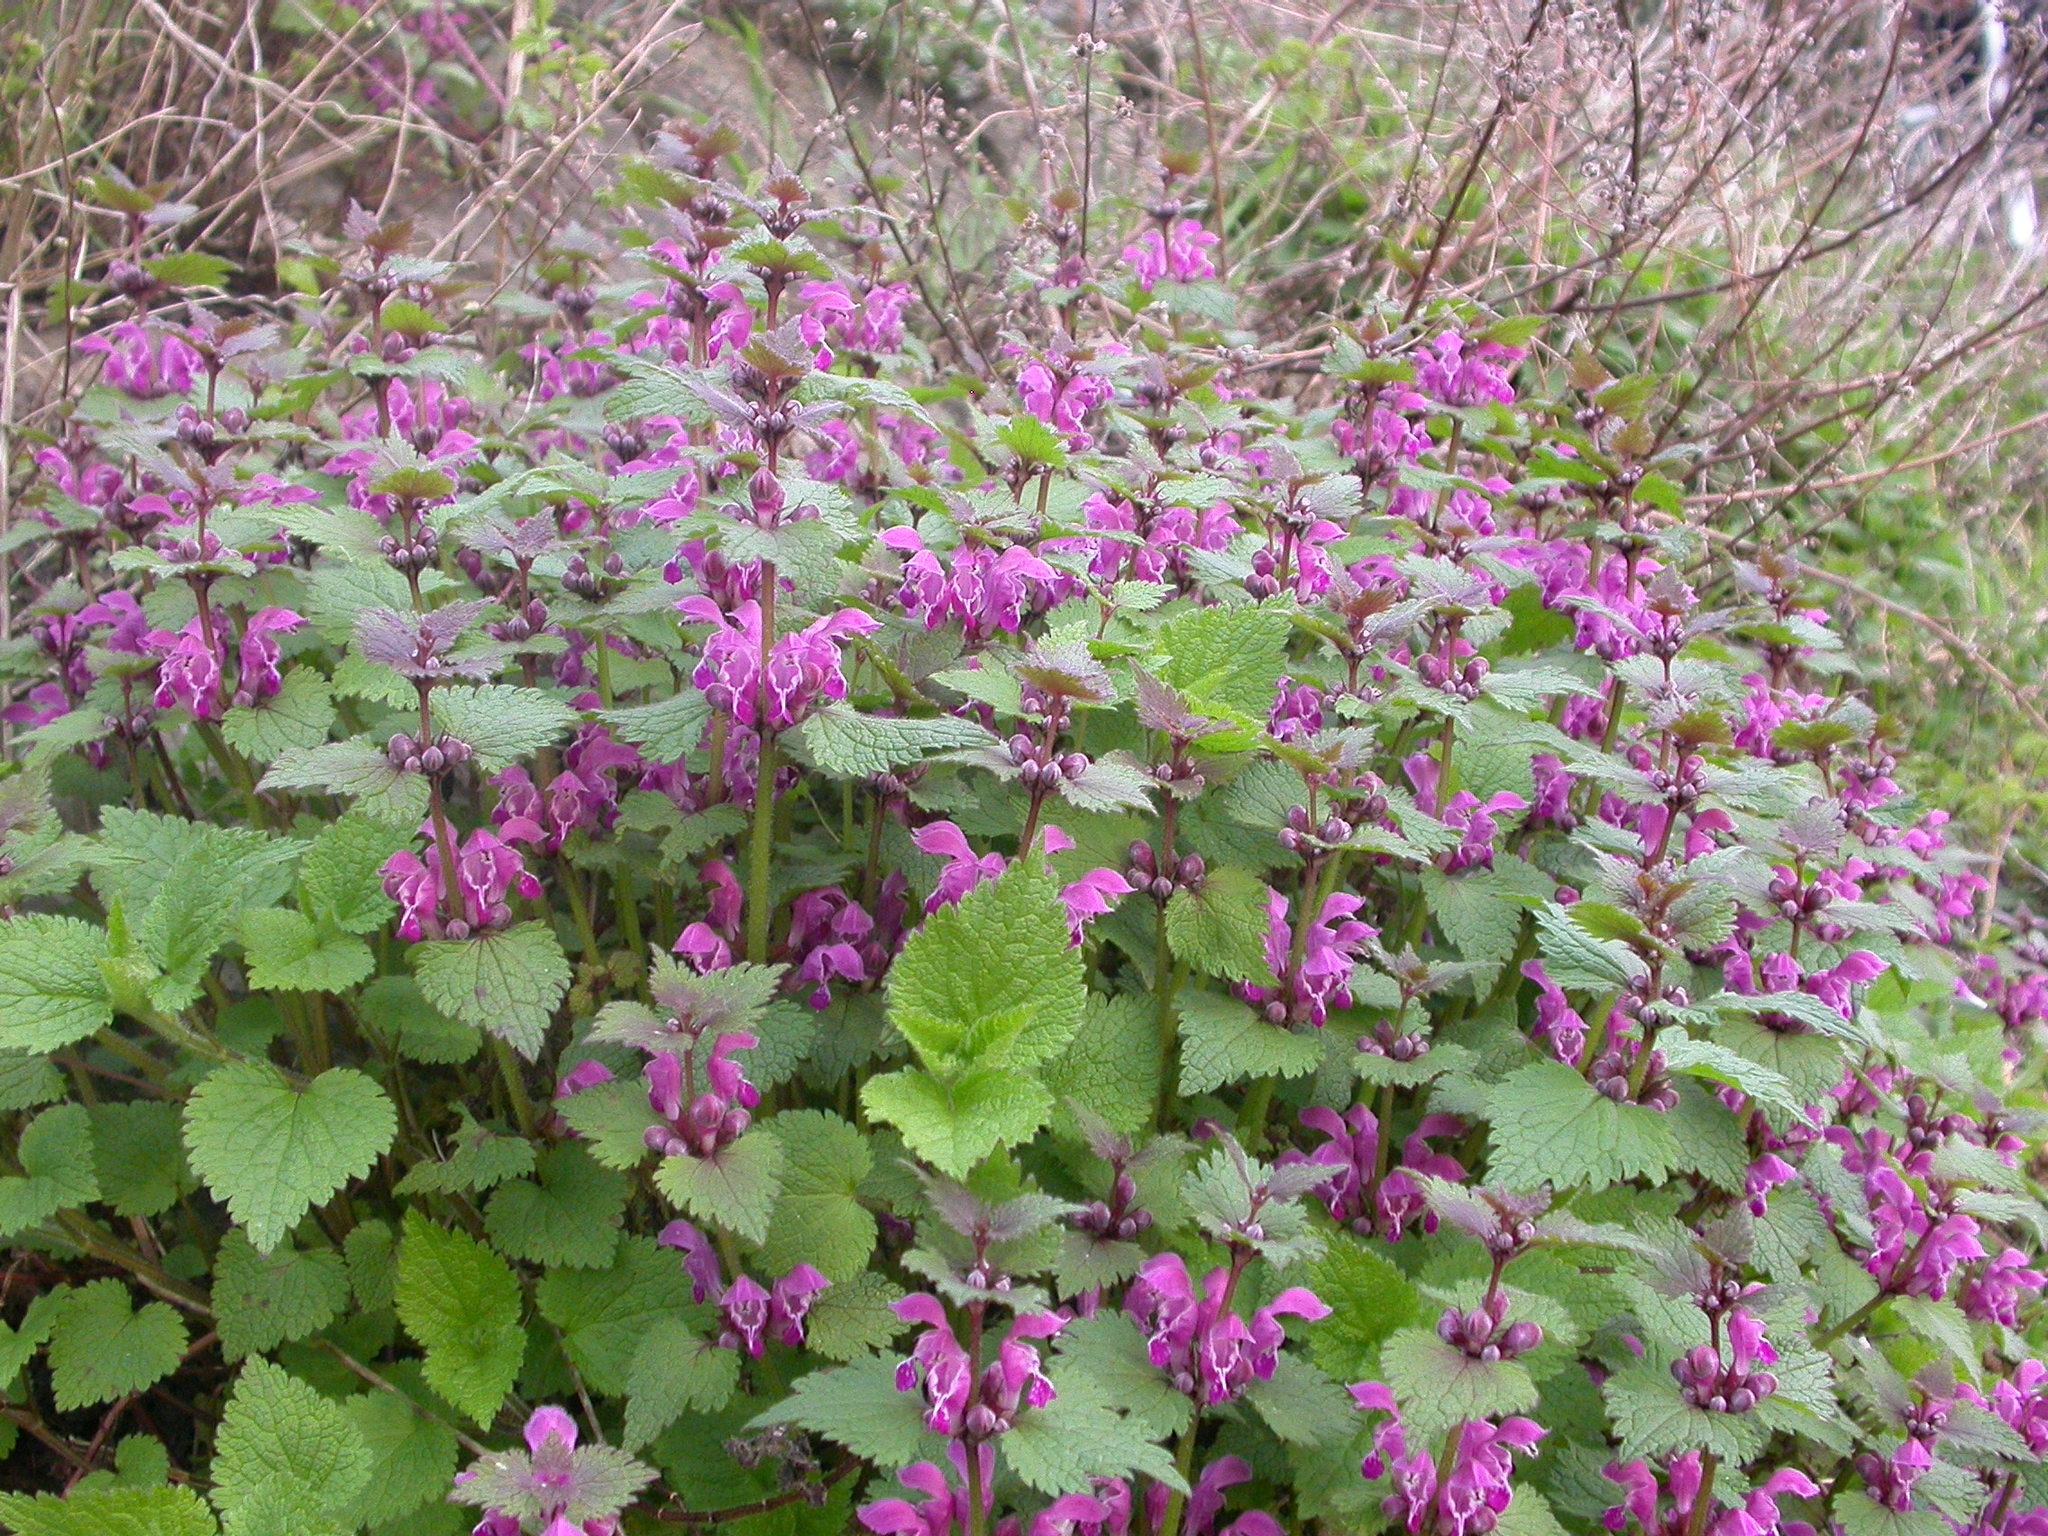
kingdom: Plantae
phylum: Tracheophyta
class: Magnoliopsida
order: Lamiales
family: Lamiaceae
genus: Lamium
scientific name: Lamium maculatum
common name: Spotted dead-nettle
